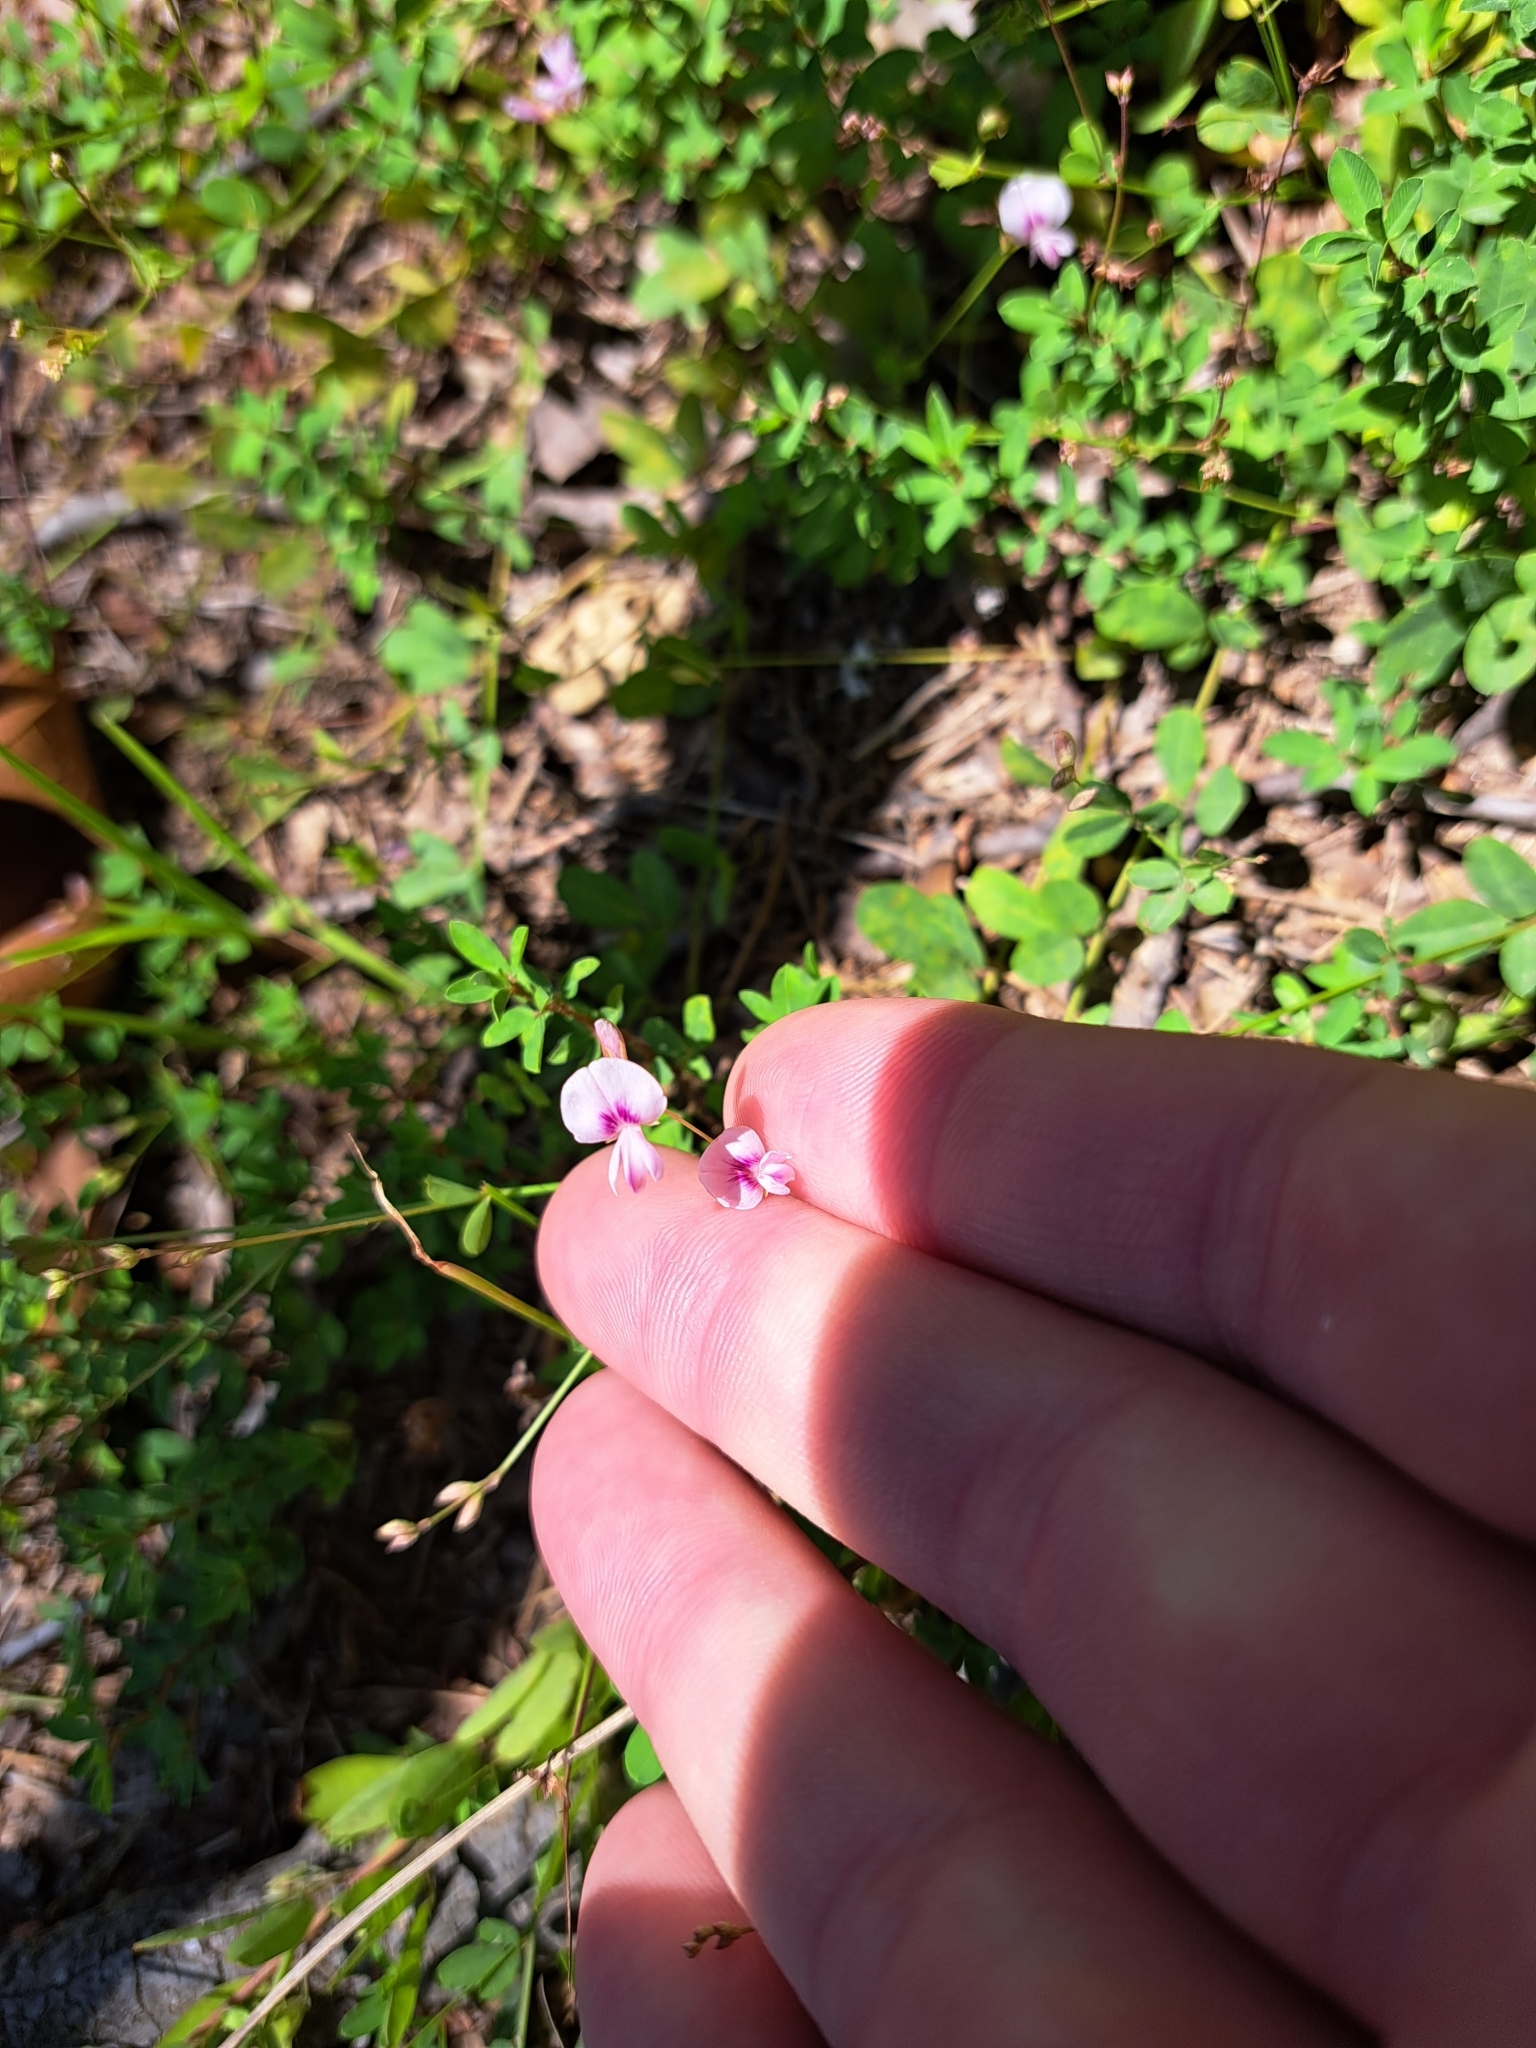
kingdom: Plantae
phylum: Tracheophyta
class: Magnoliopsida
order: Fabales
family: Fabaceae
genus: Lespedeza
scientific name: Lespedeza repens
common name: Creeping bush-clover
